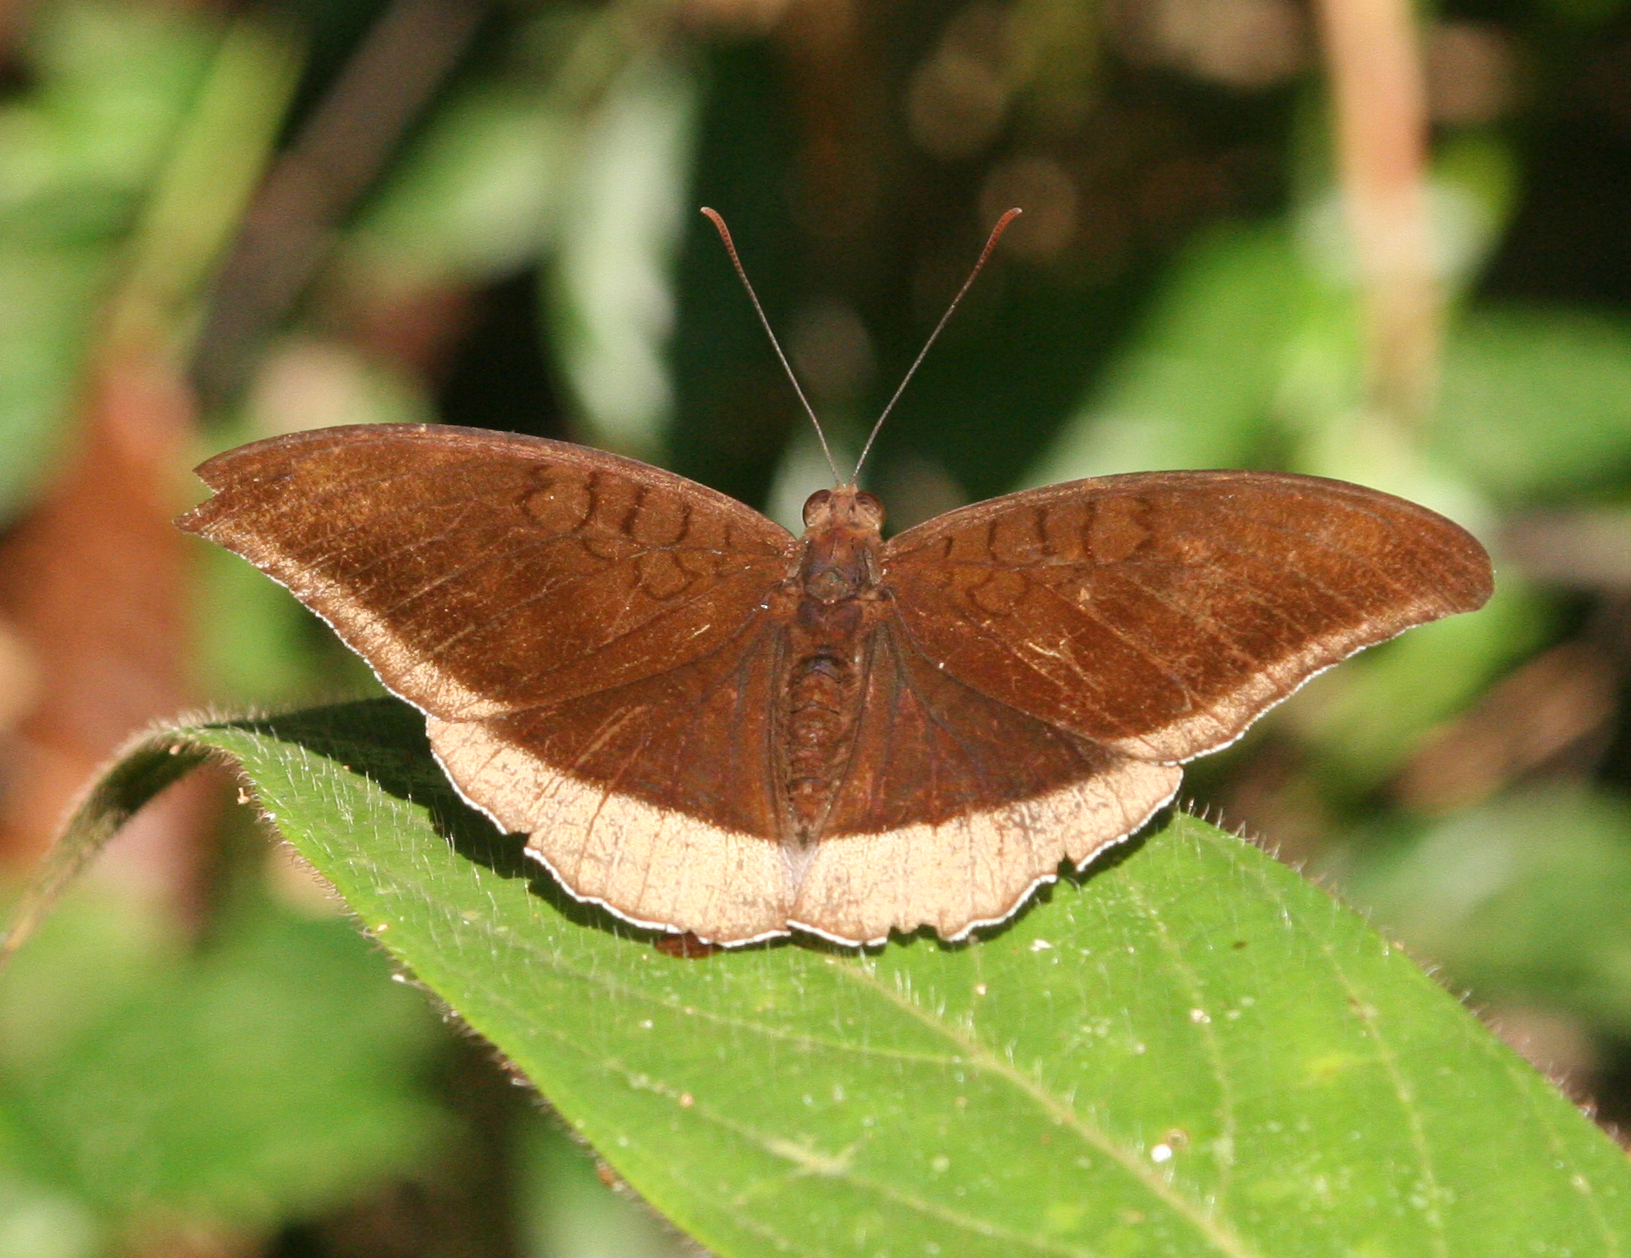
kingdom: Animalia
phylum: Arthropoda
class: Insecta
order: Lepidoptera
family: Nymphalidae
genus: Tanaecia
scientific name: Tanaecia lepidea
